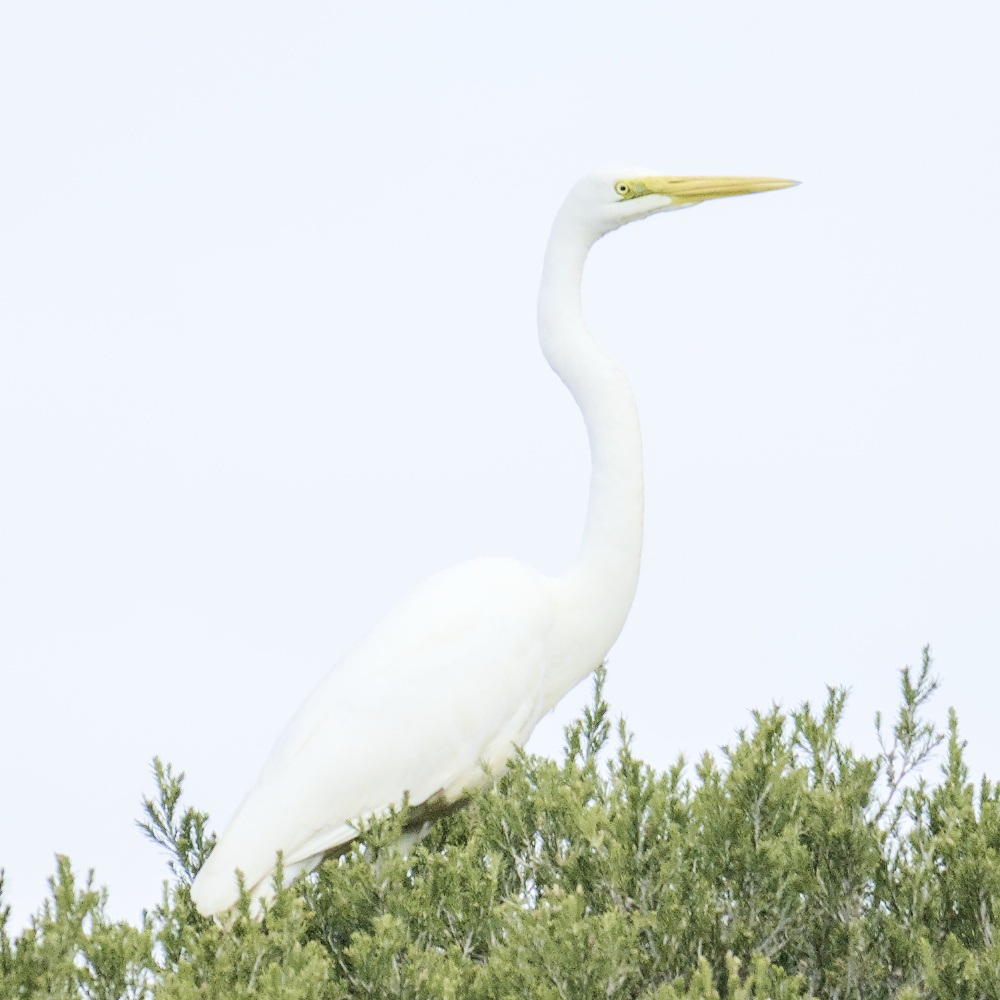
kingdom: Animalia
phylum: Chordata
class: Aves
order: Pelecaniformes
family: Ardeidae
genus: Ardea
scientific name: Ardea alba
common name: Great egret
